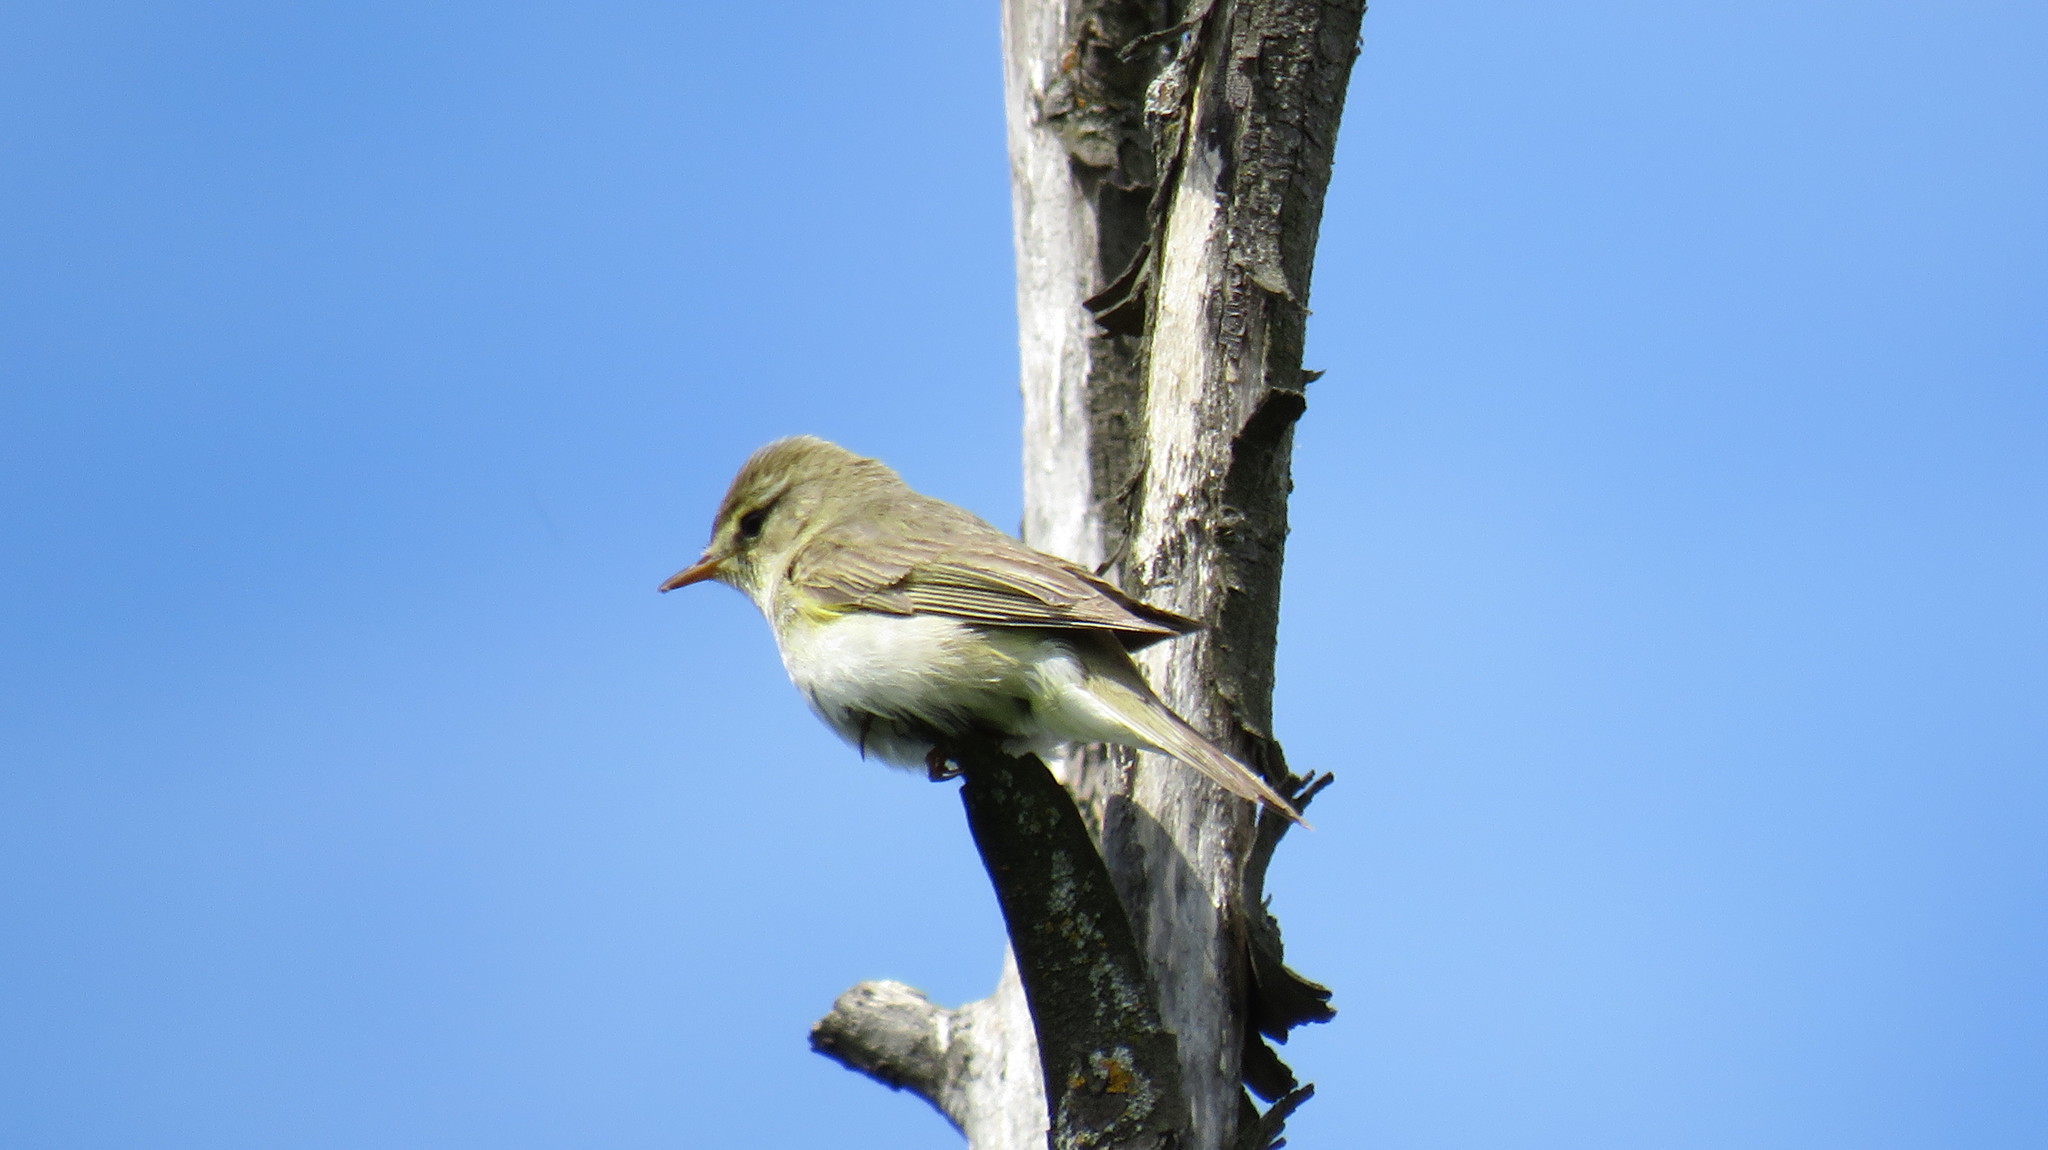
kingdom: Animalia
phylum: Chordata
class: Aves
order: Passeriformes
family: Phylloscopidae
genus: Phylloscopus
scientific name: Phylloscopus trochilus
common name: Willow warbler
